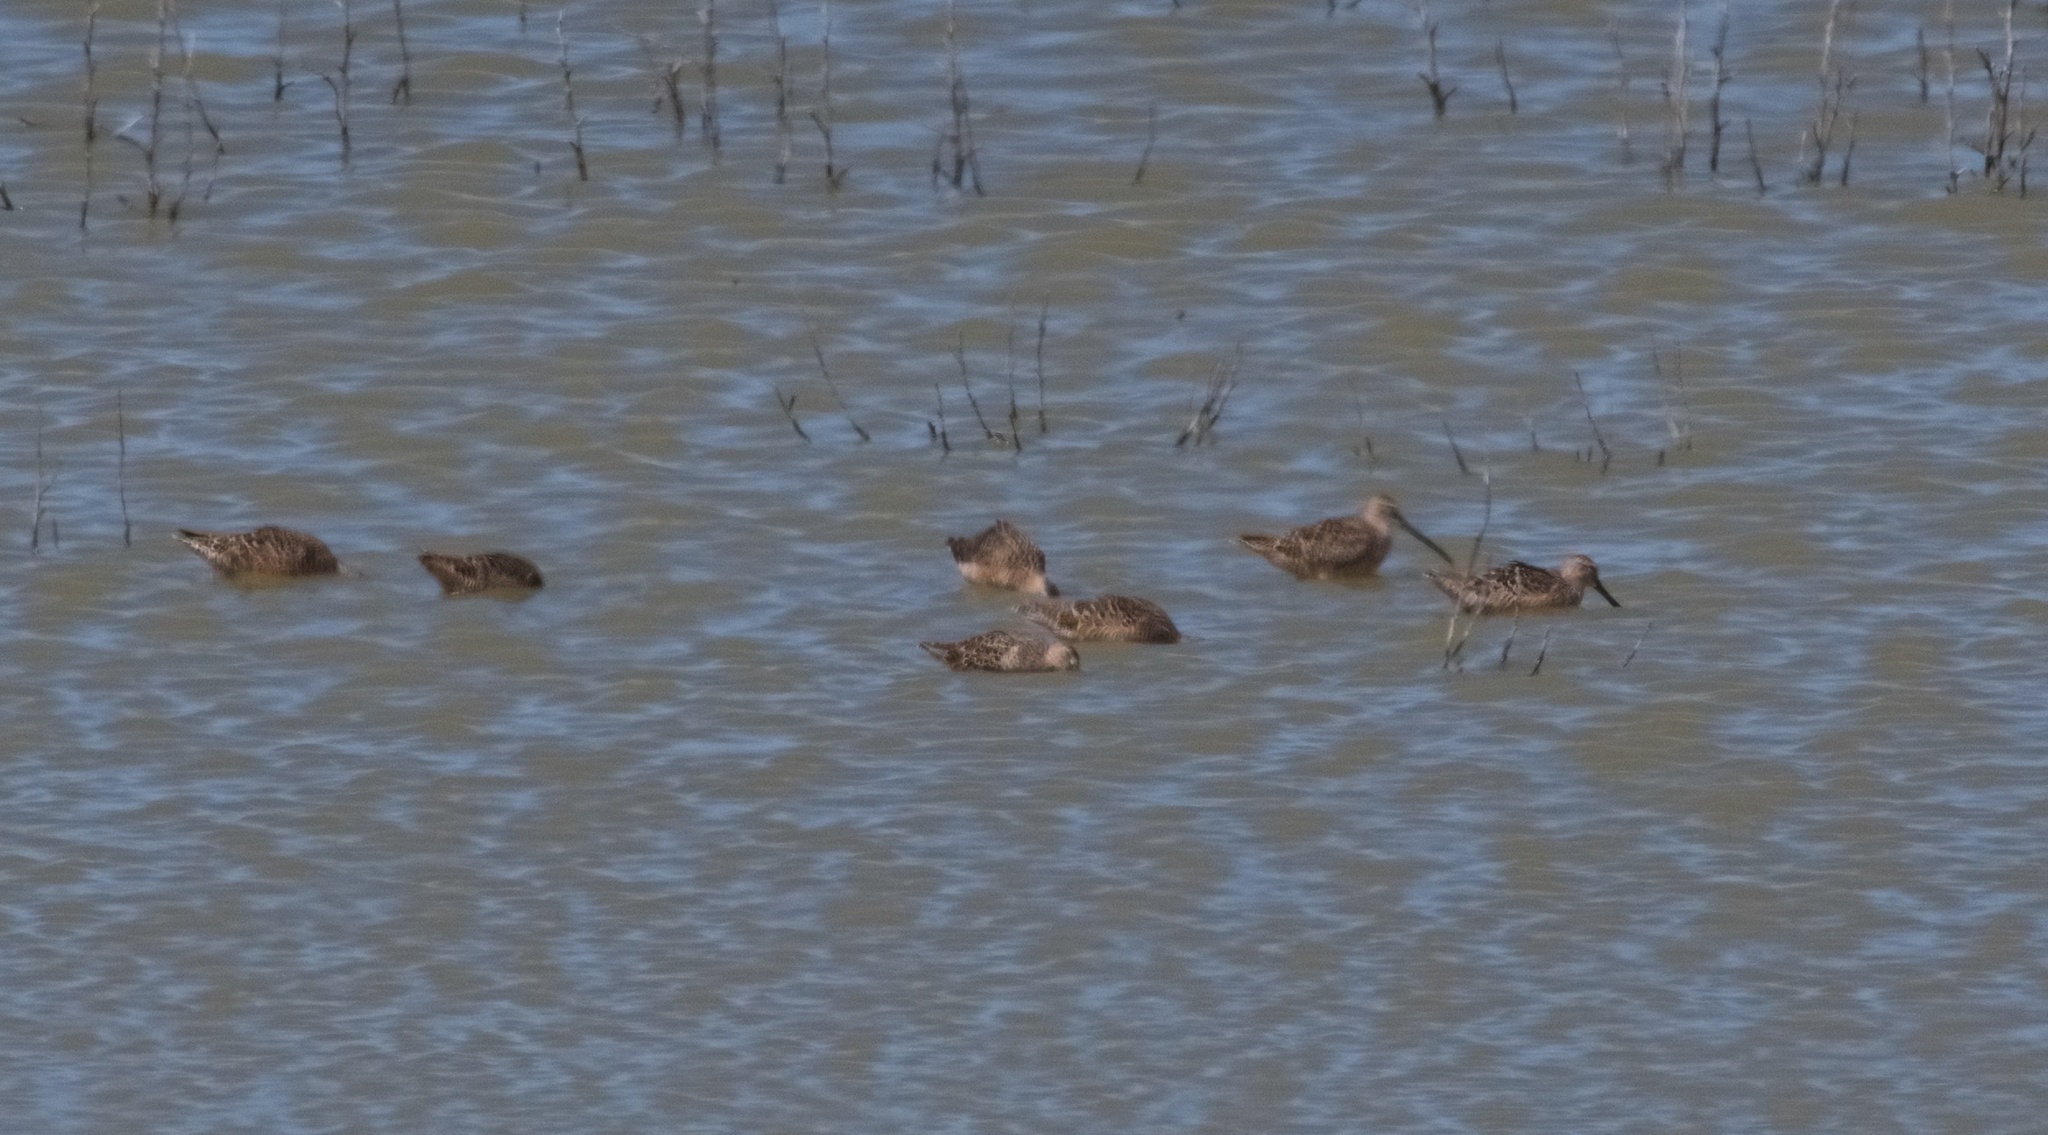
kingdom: Animalia
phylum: Chordata
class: Aves
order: Charadriiformes
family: Scolopacidae
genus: Limnodromus
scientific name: Limnodromus scolopaceus
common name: Long-billed dowitcher
